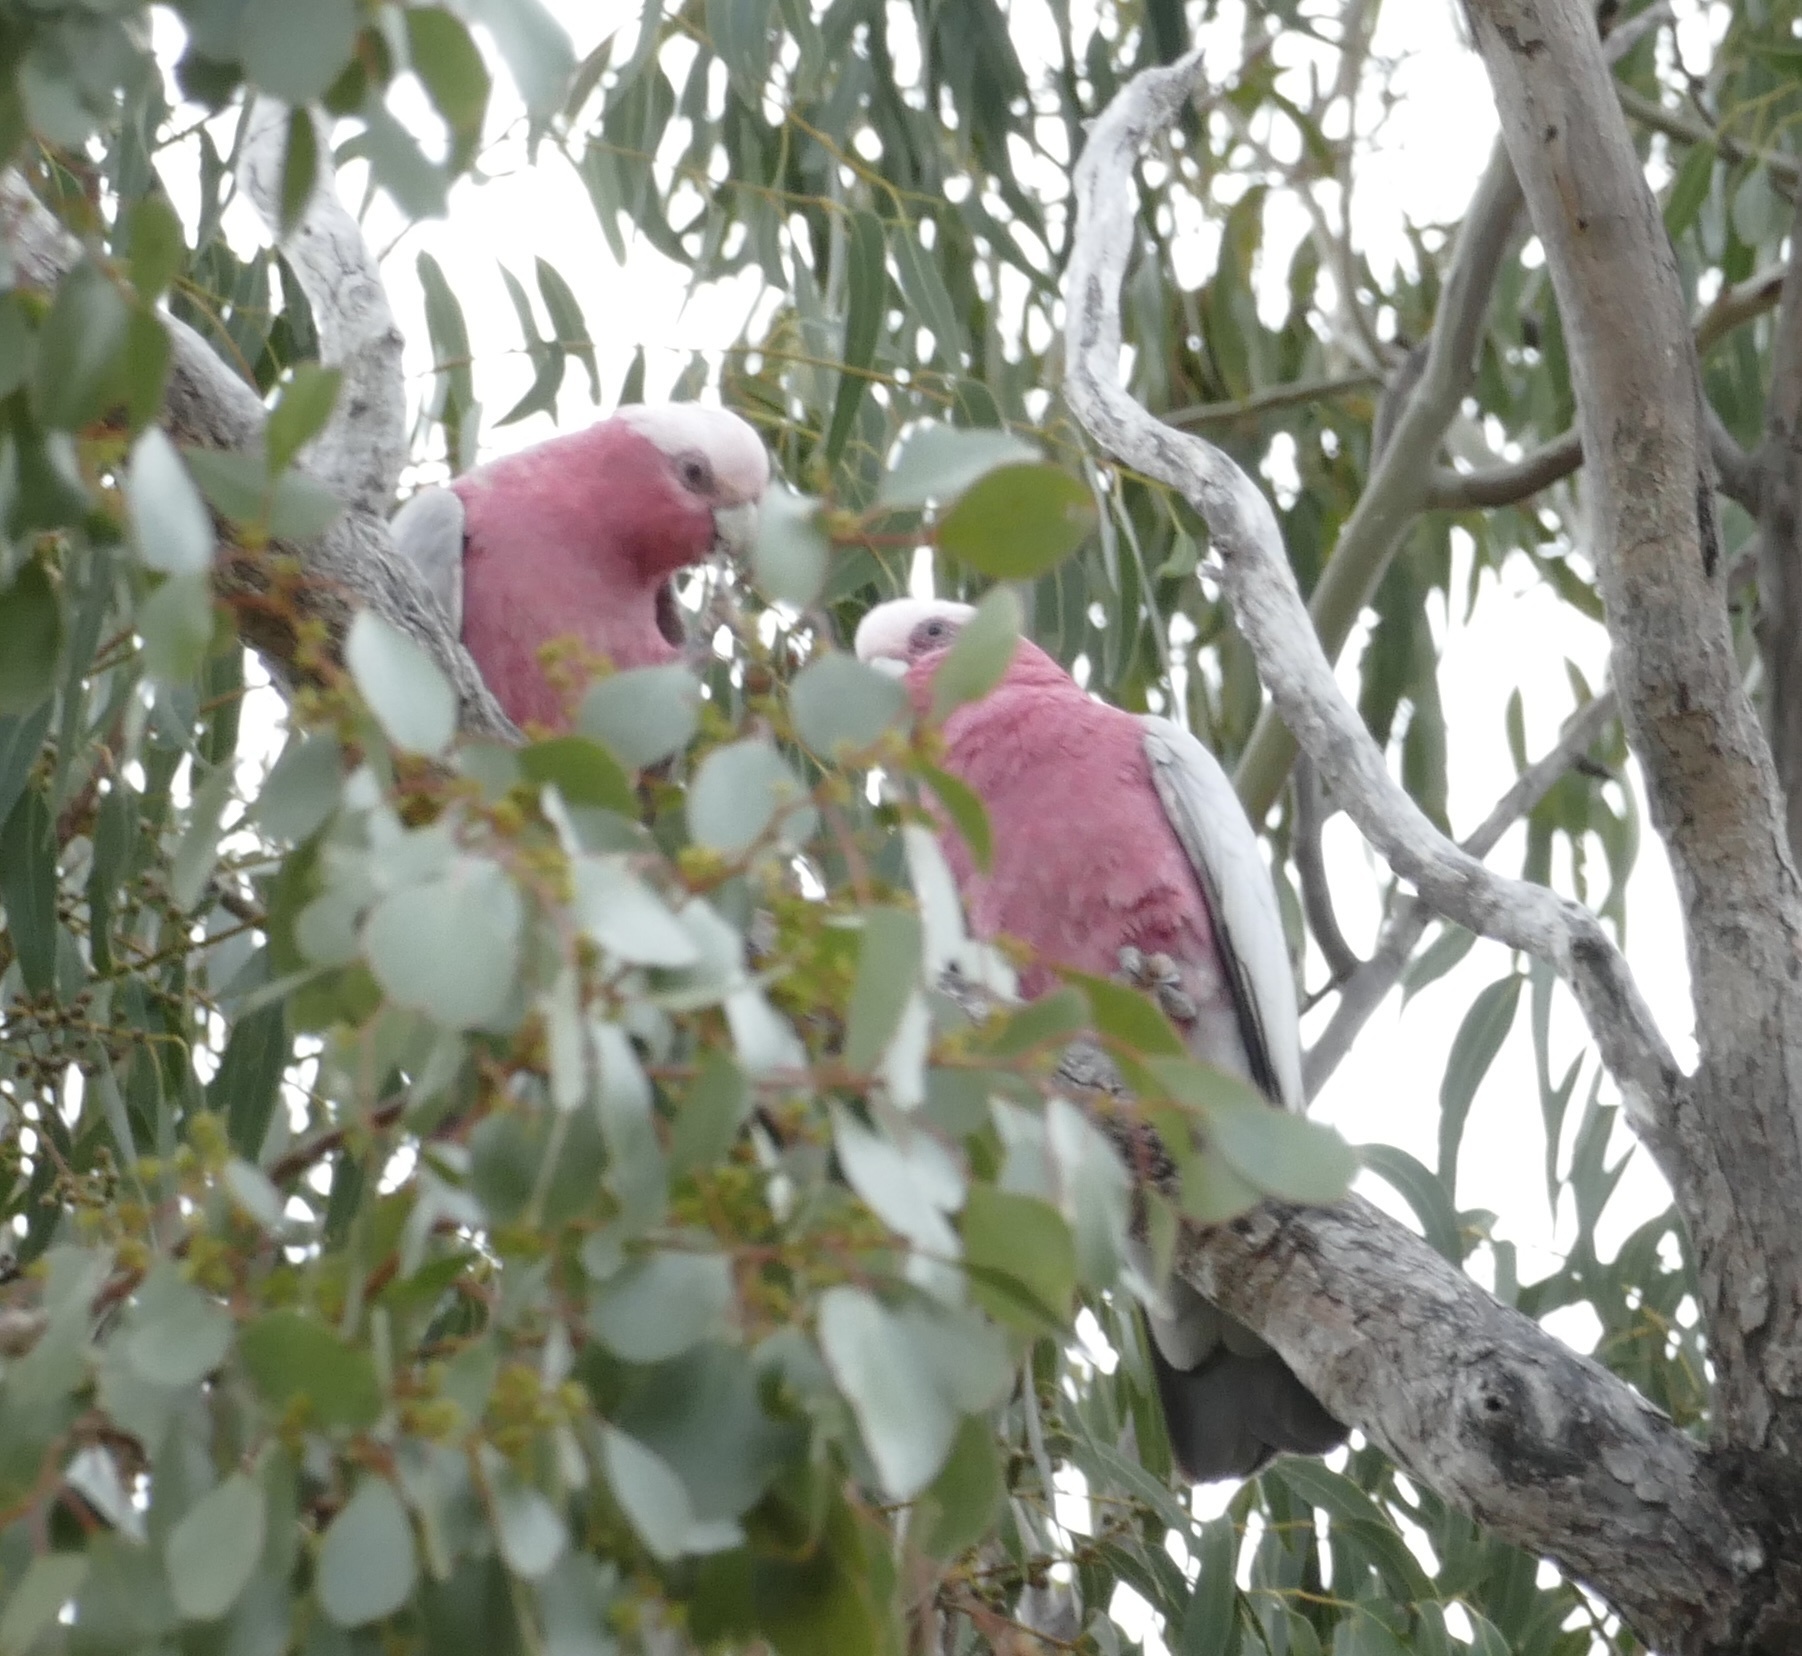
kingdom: Animalia
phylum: Chordata
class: Aves
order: Psittaciformes
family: Psittacidae
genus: Eolophus
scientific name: Eolophus roseicapilla
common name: Galah
